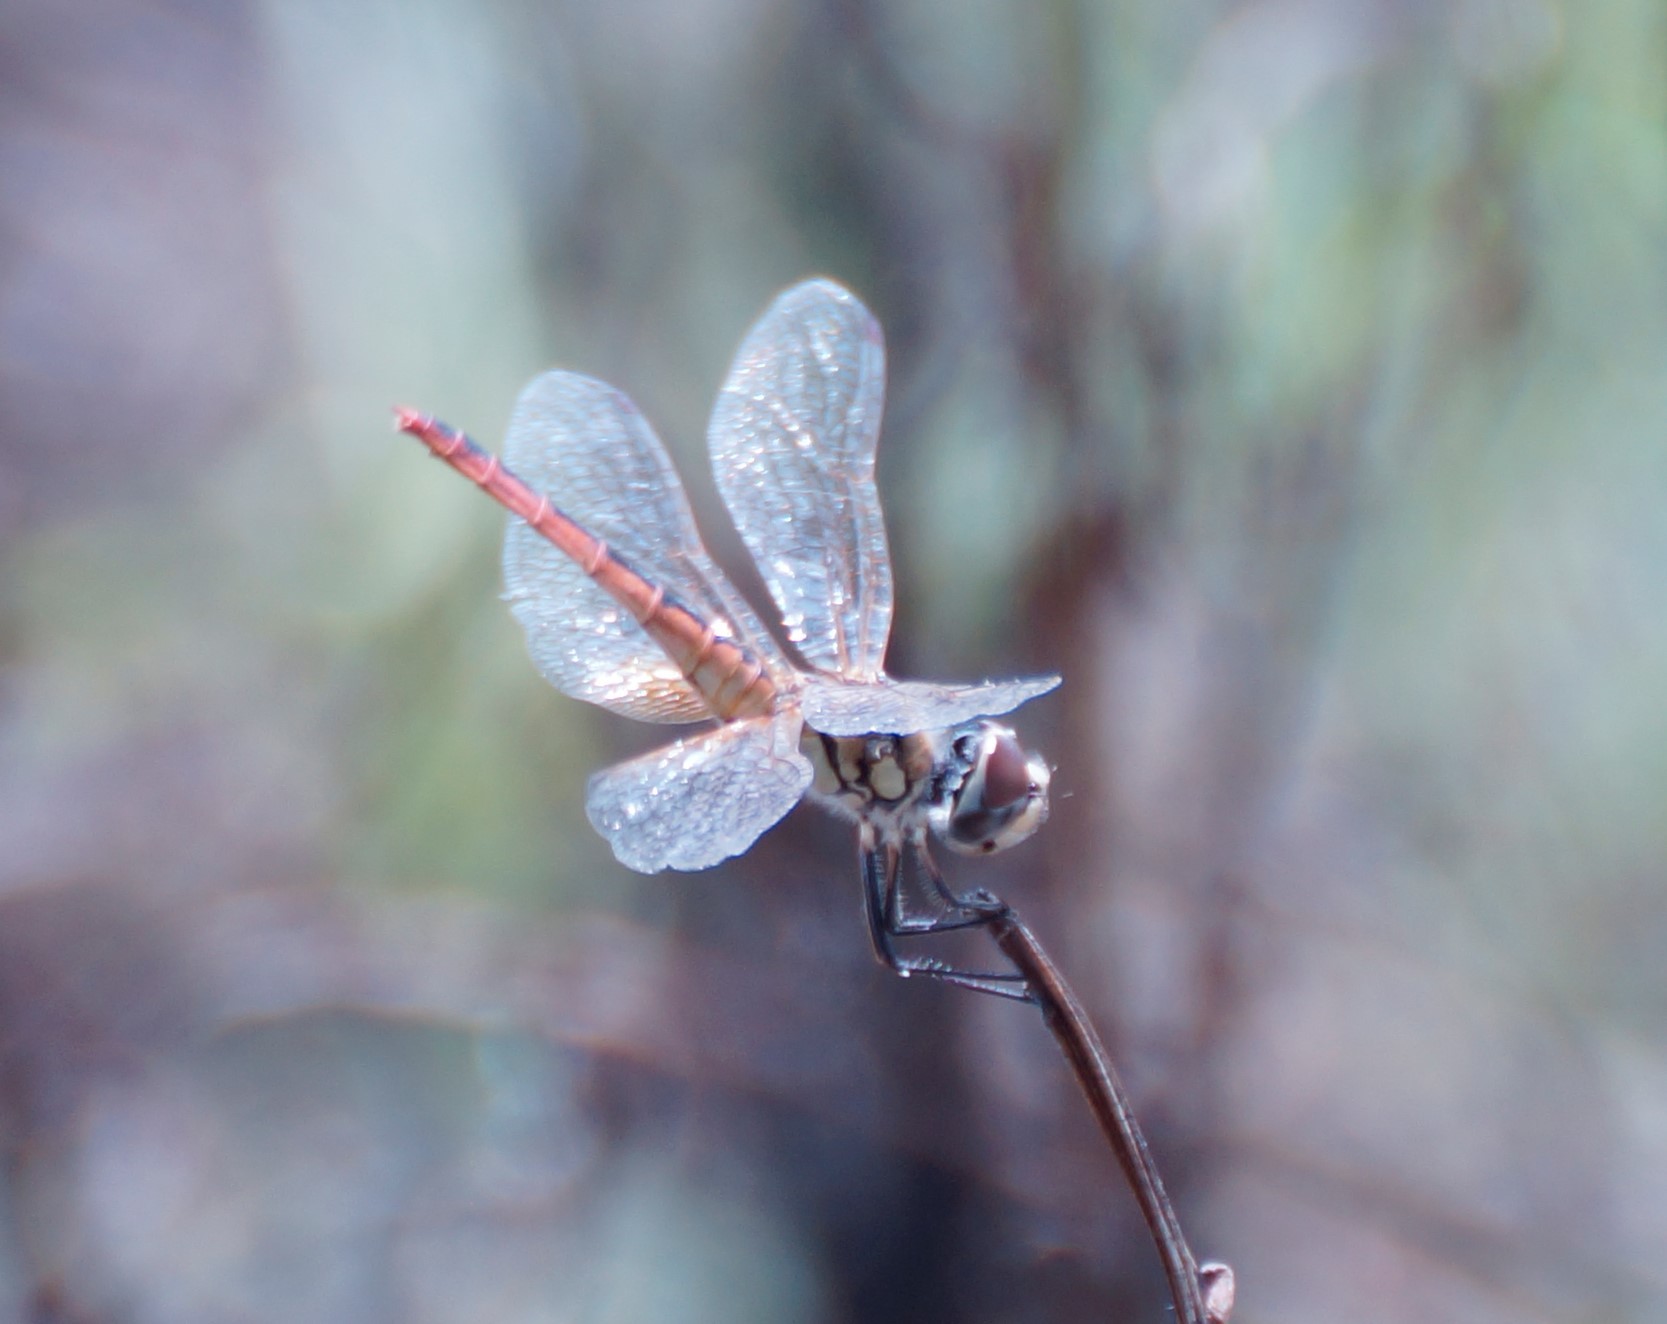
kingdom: Animalia
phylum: Arthropoda
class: Insecta
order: Odonata
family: Libellulidae
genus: Crocothemis
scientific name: Crocothemis nigrifrons
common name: Black-headed skimmer
